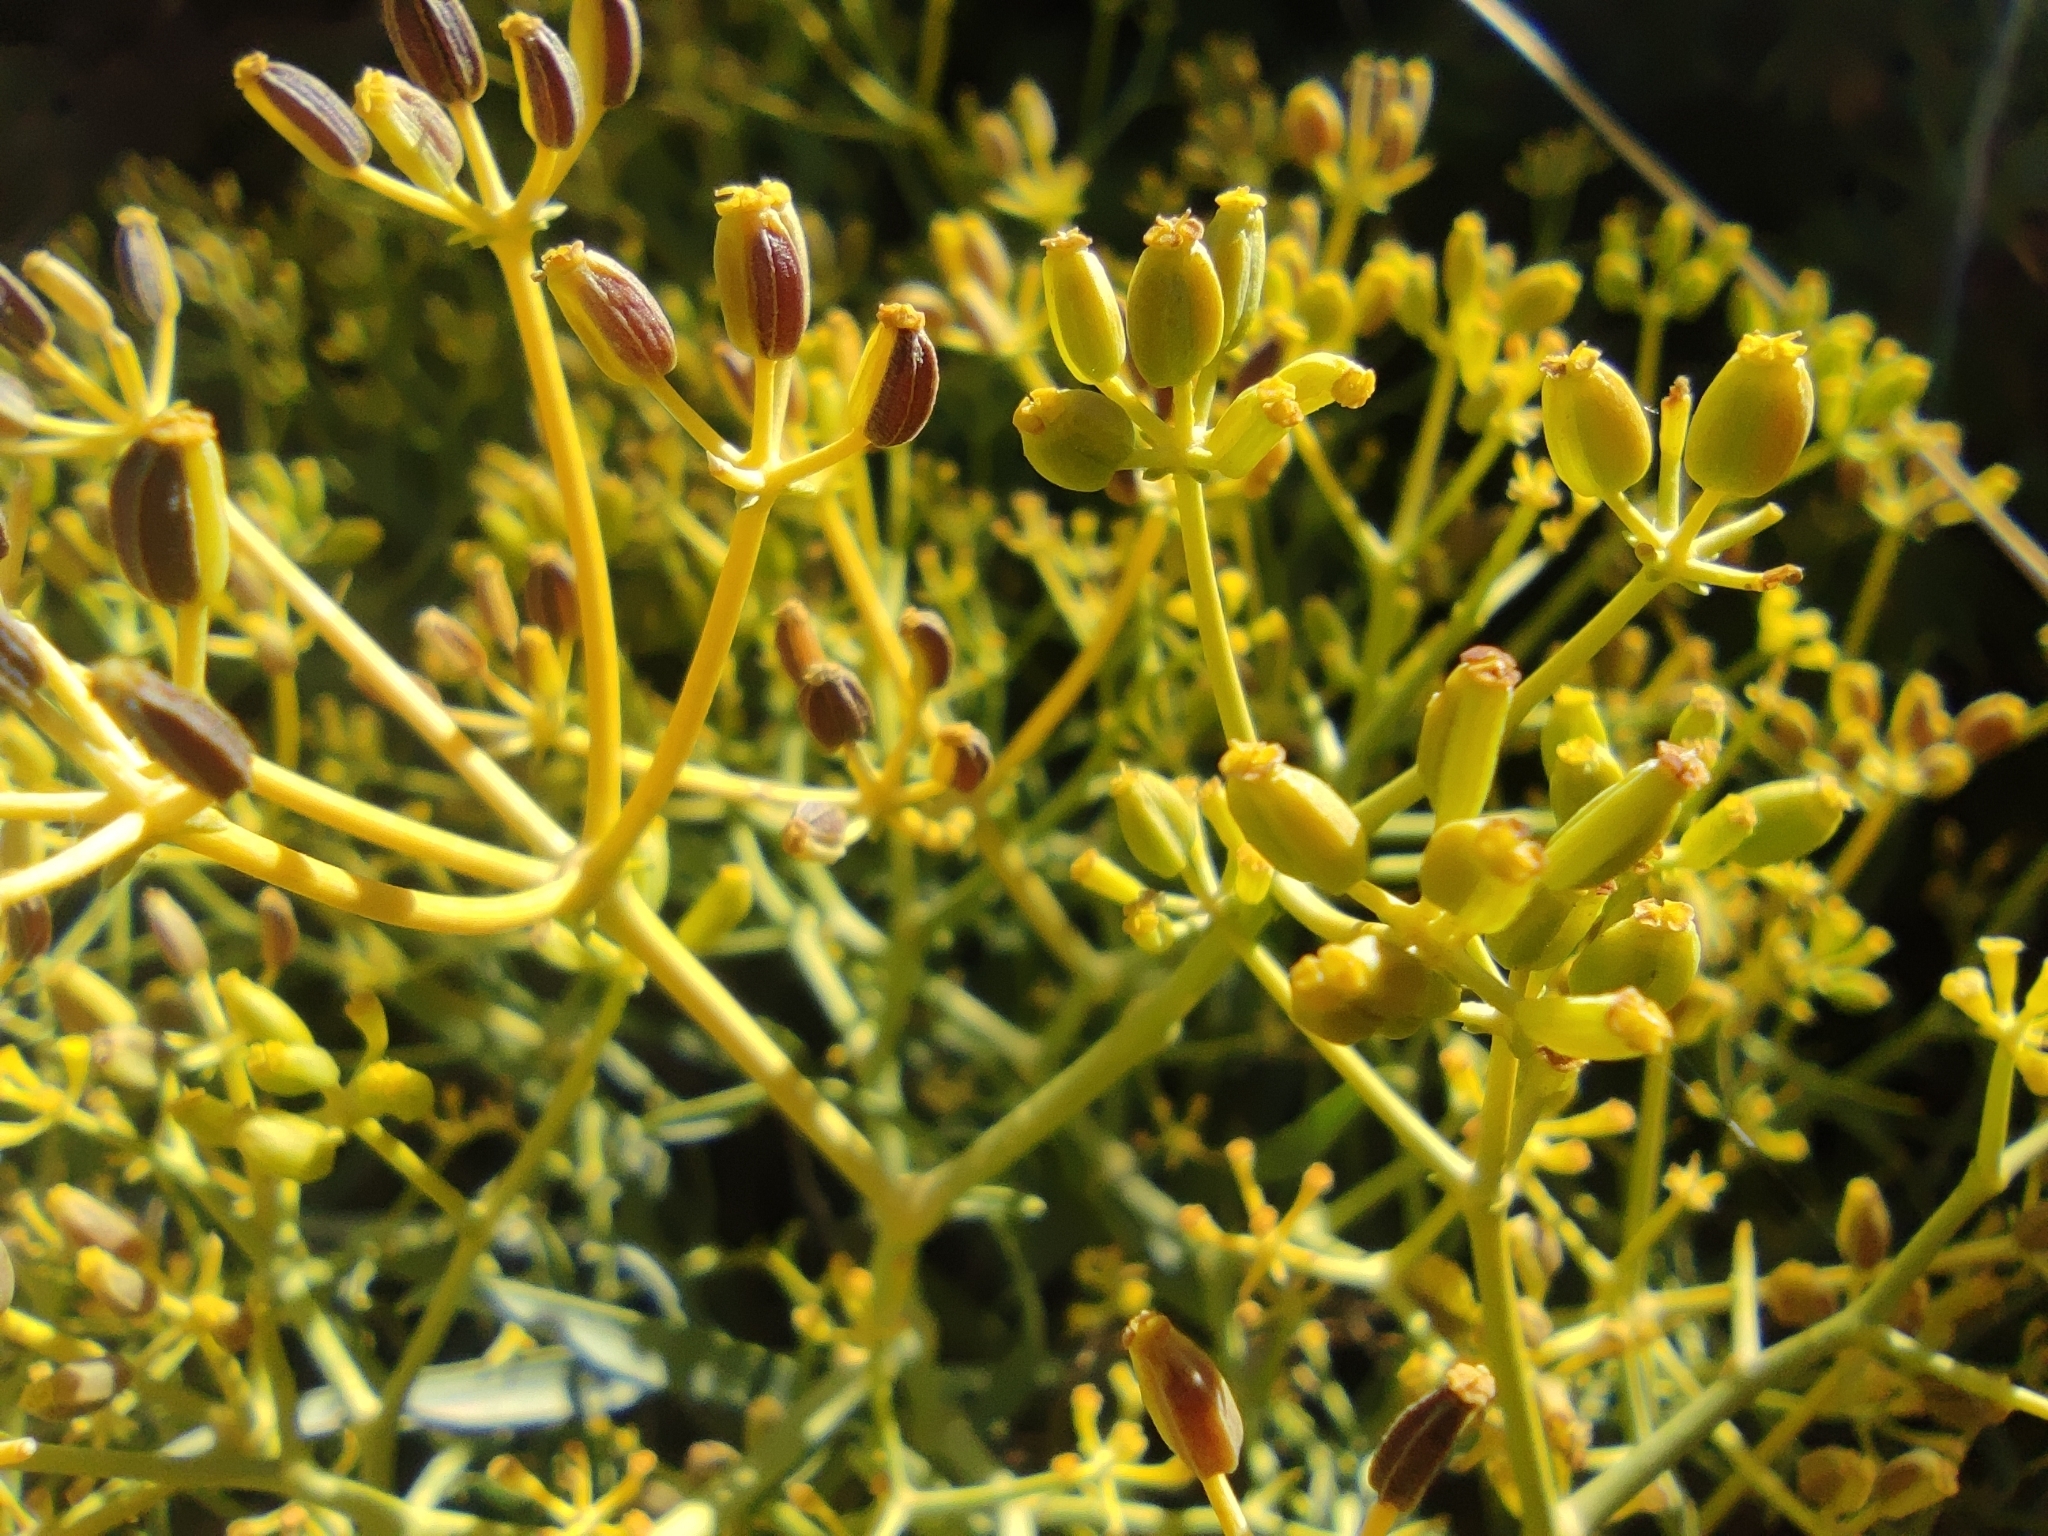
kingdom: Plantae
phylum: Tracheophyta
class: Magnoliopsida
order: Apiales
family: Apiaceae
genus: Bupleurum
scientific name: Bupleurum fruticescens
